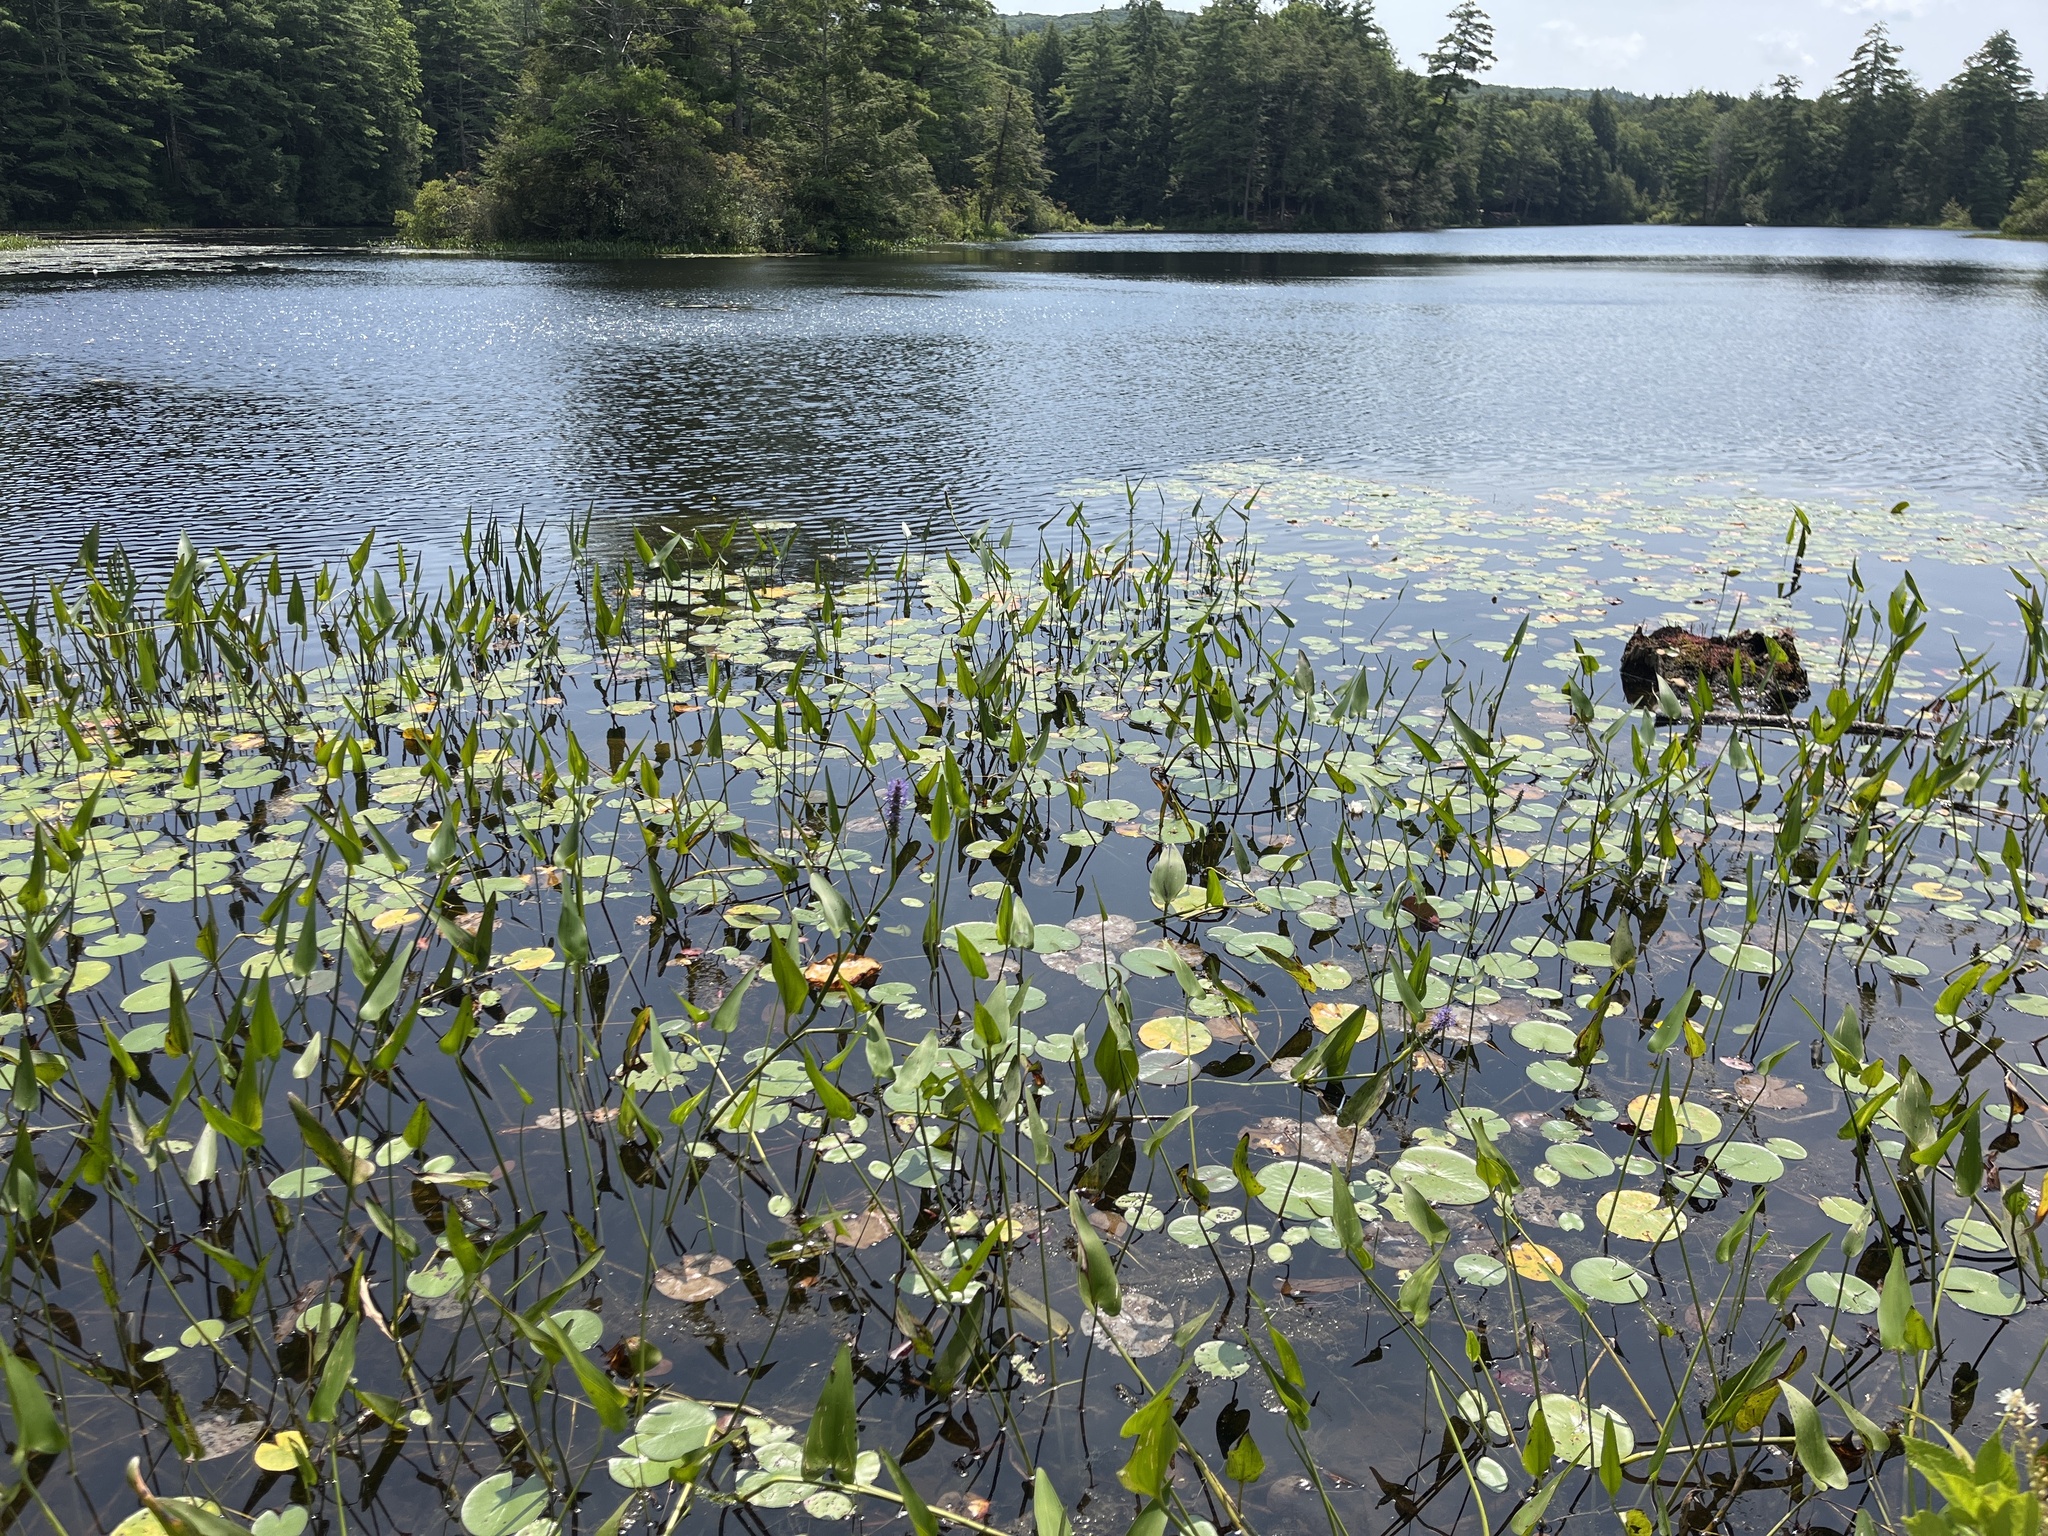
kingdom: Plantae
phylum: Tracheophyta
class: Liliopsida
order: Commelinales
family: Pontederiaceae
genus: Pontederia
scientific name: Pontederia cordata
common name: Pickerelweed
